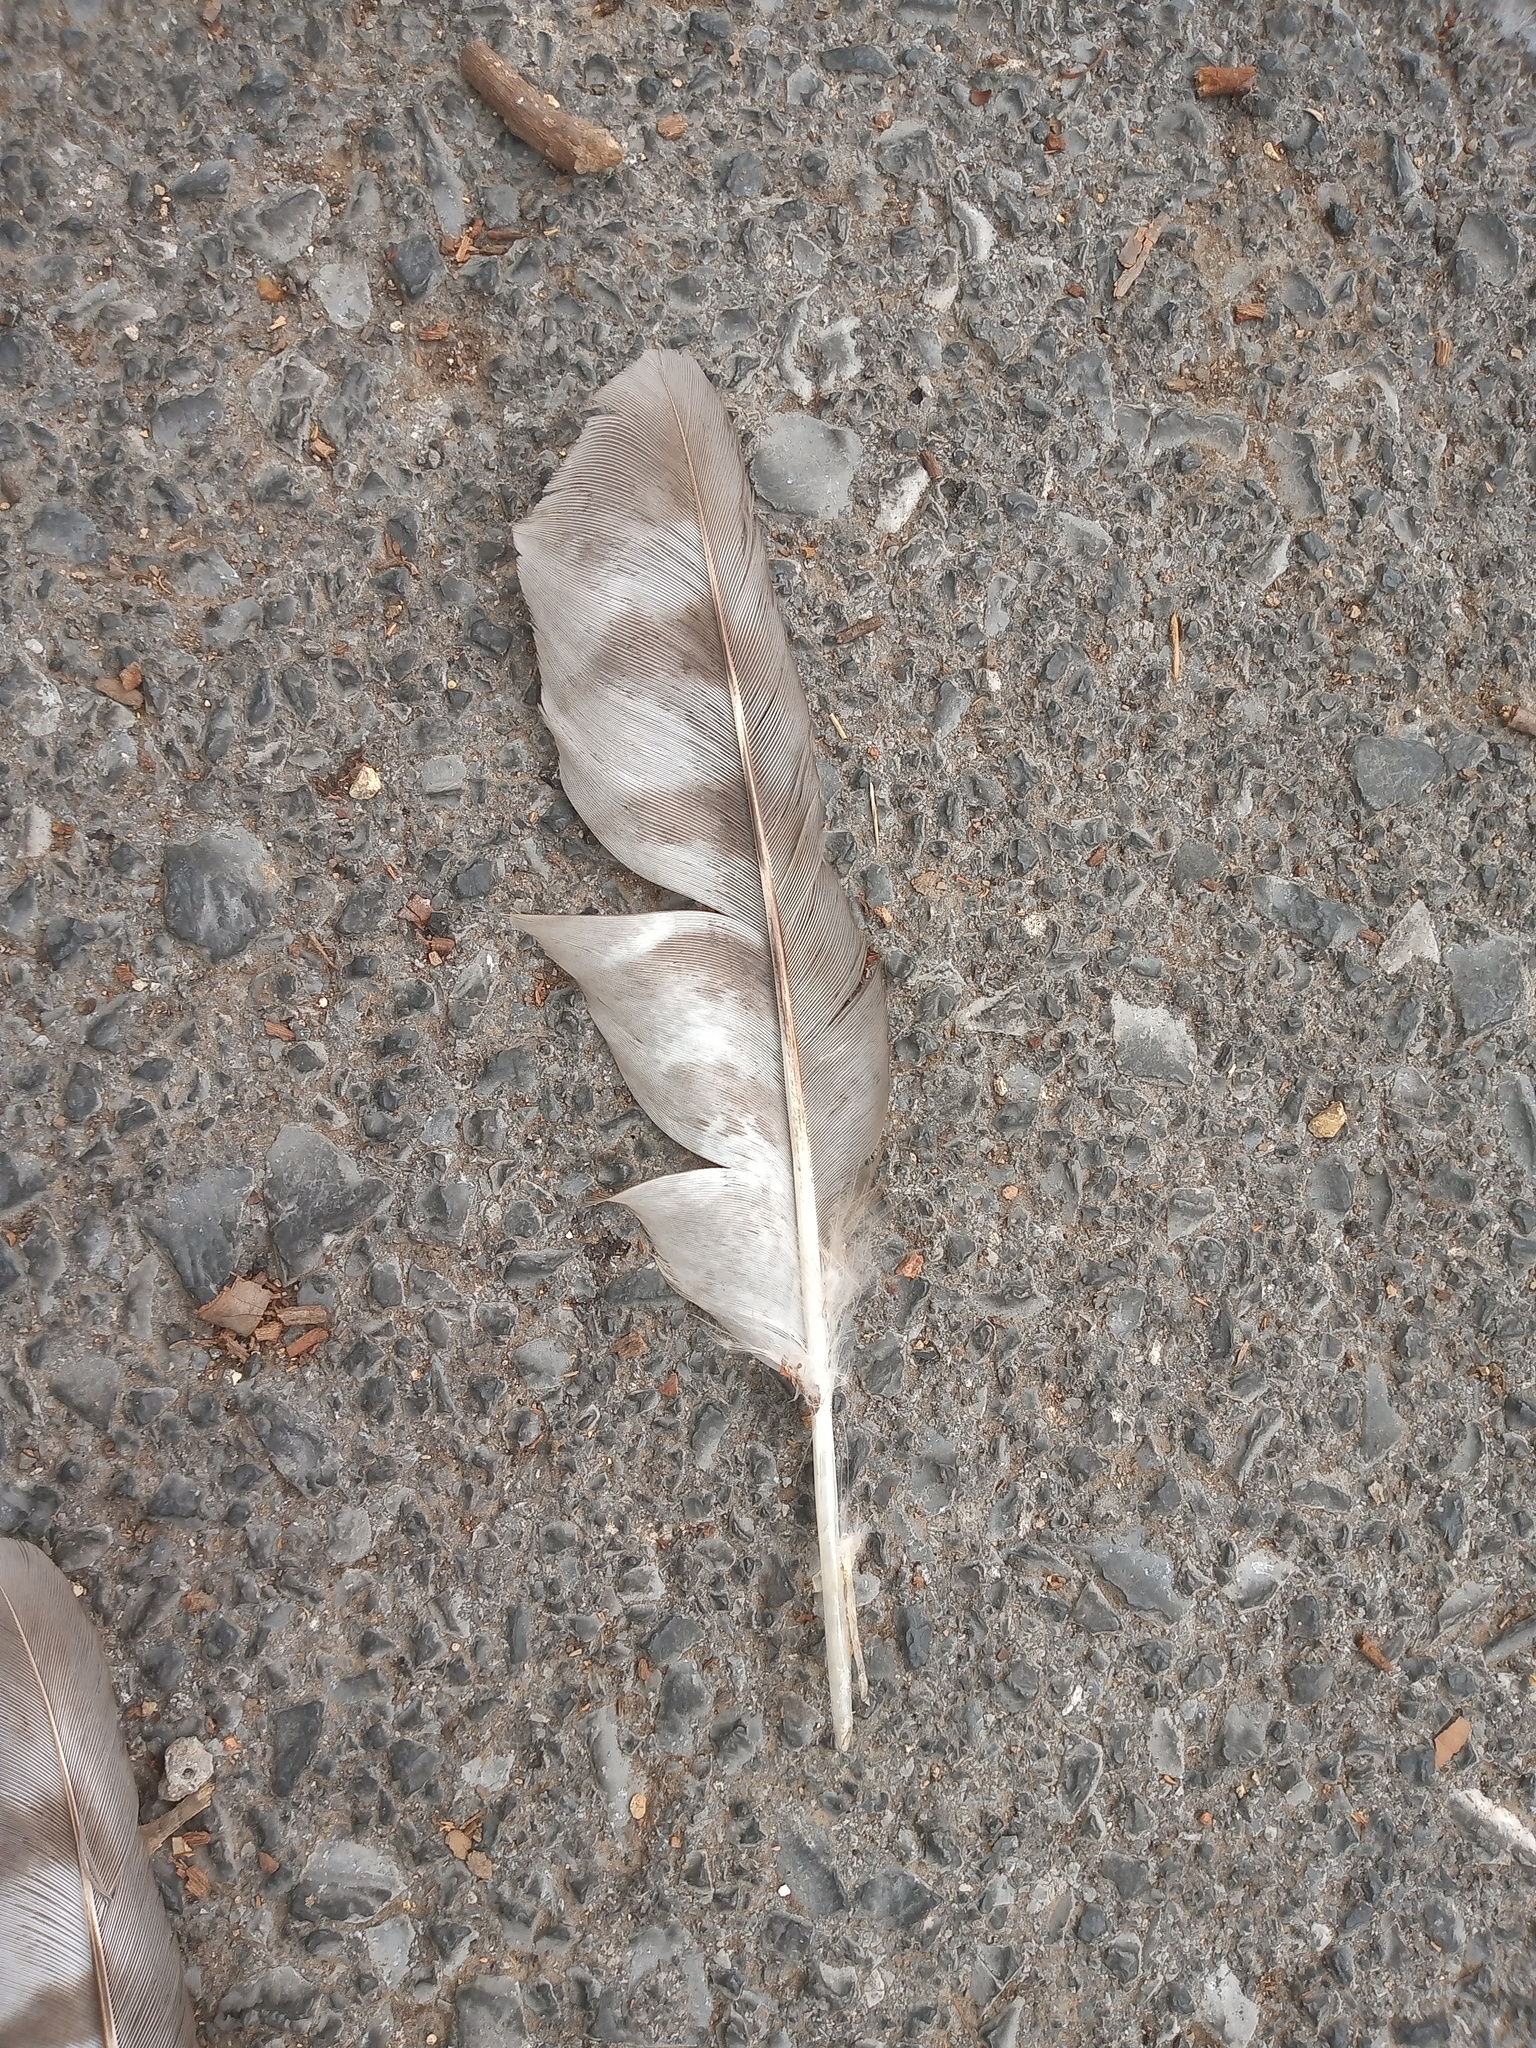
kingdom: Animalia
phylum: Chordata
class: Aves
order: Accipitriformes
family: Accipitridae
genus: Accipiter
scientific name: Accipiter cooperii
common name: Cooper's hawk
